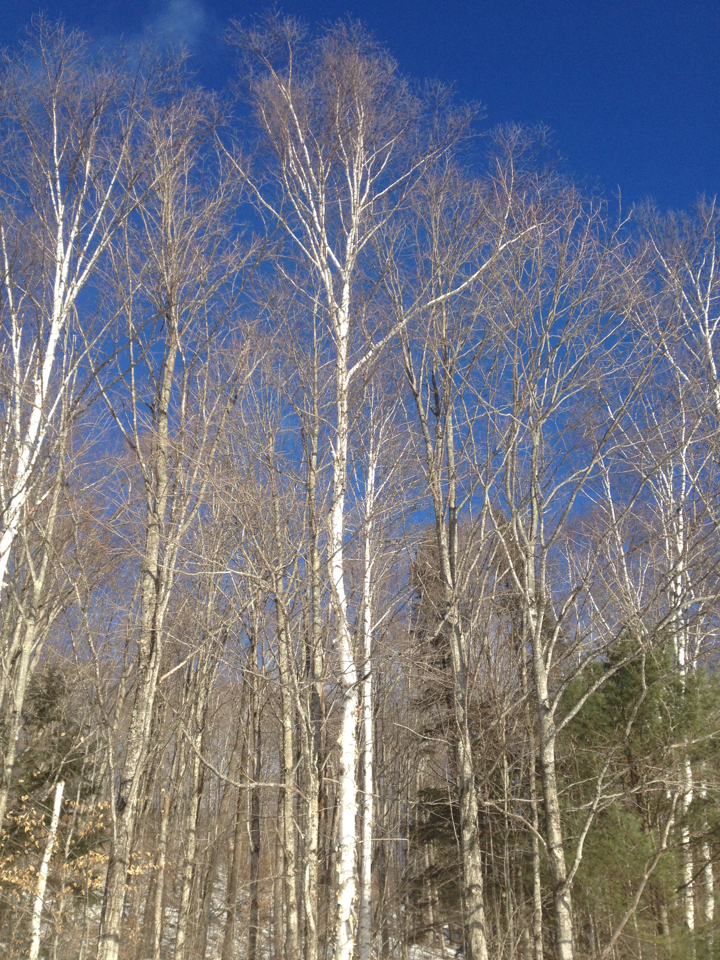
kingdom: Plantae
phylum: Tracheophyta
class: Magnoliopsida
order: Fagales
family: Betulaceae
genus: Betula
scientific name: Betula papyrifera
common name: Paper birch
